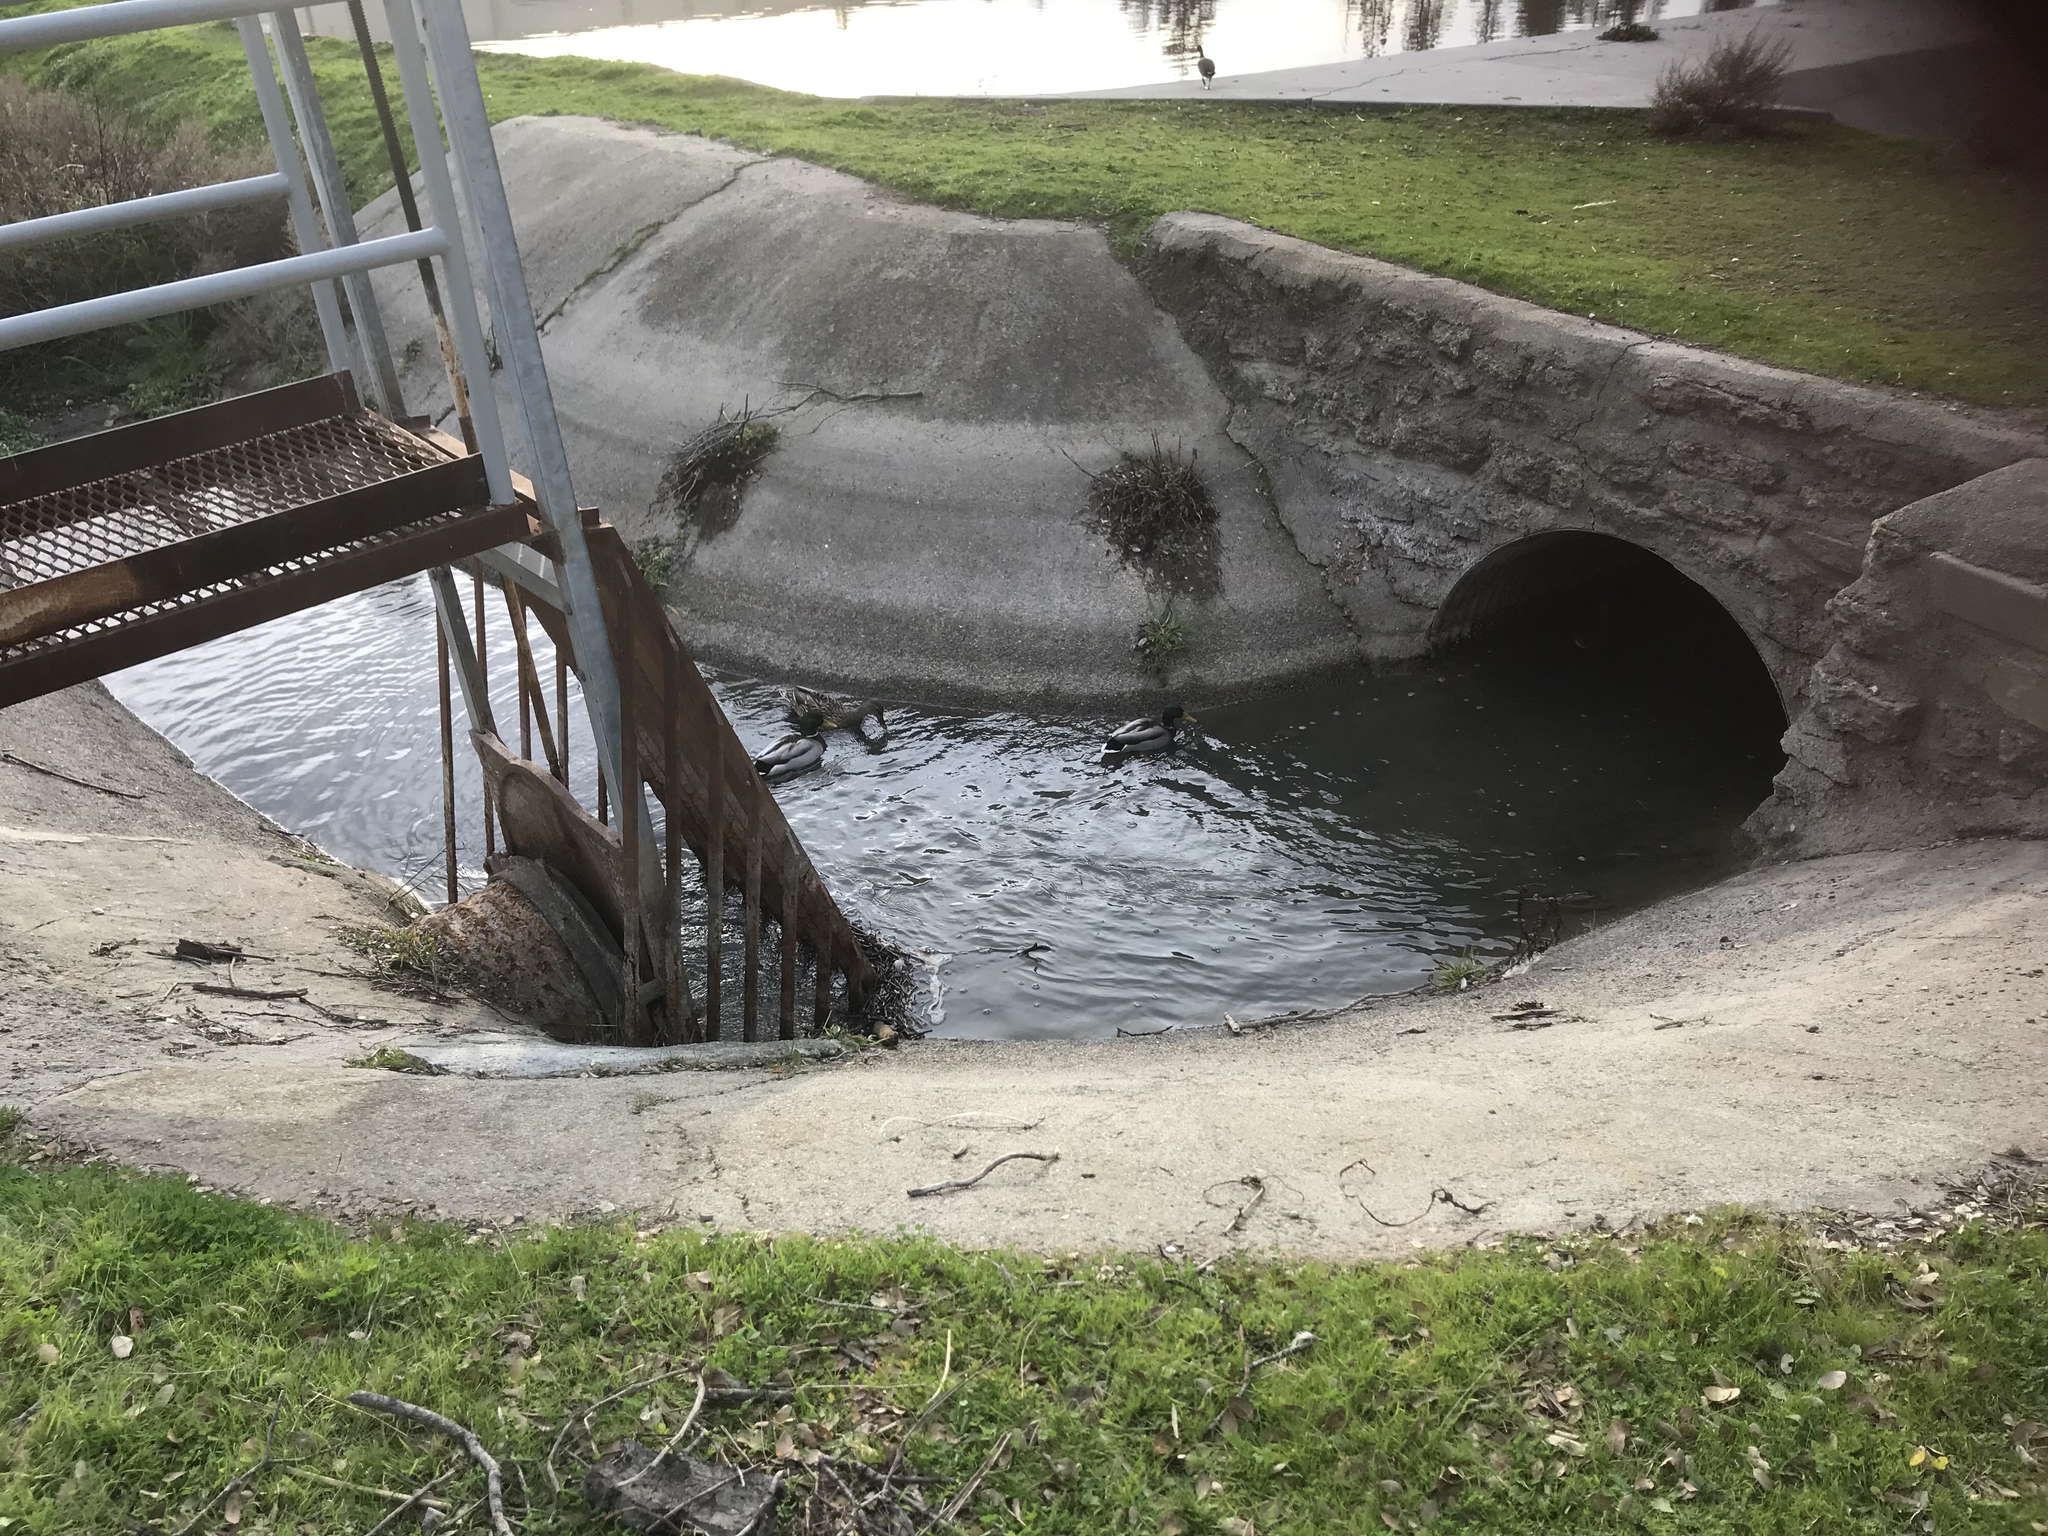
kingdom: Animalia
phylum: Chordata
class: Aves
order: Anseriformes
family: Anatidae
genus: Anas
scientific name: Anas platyrhynchos
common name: Mallard
